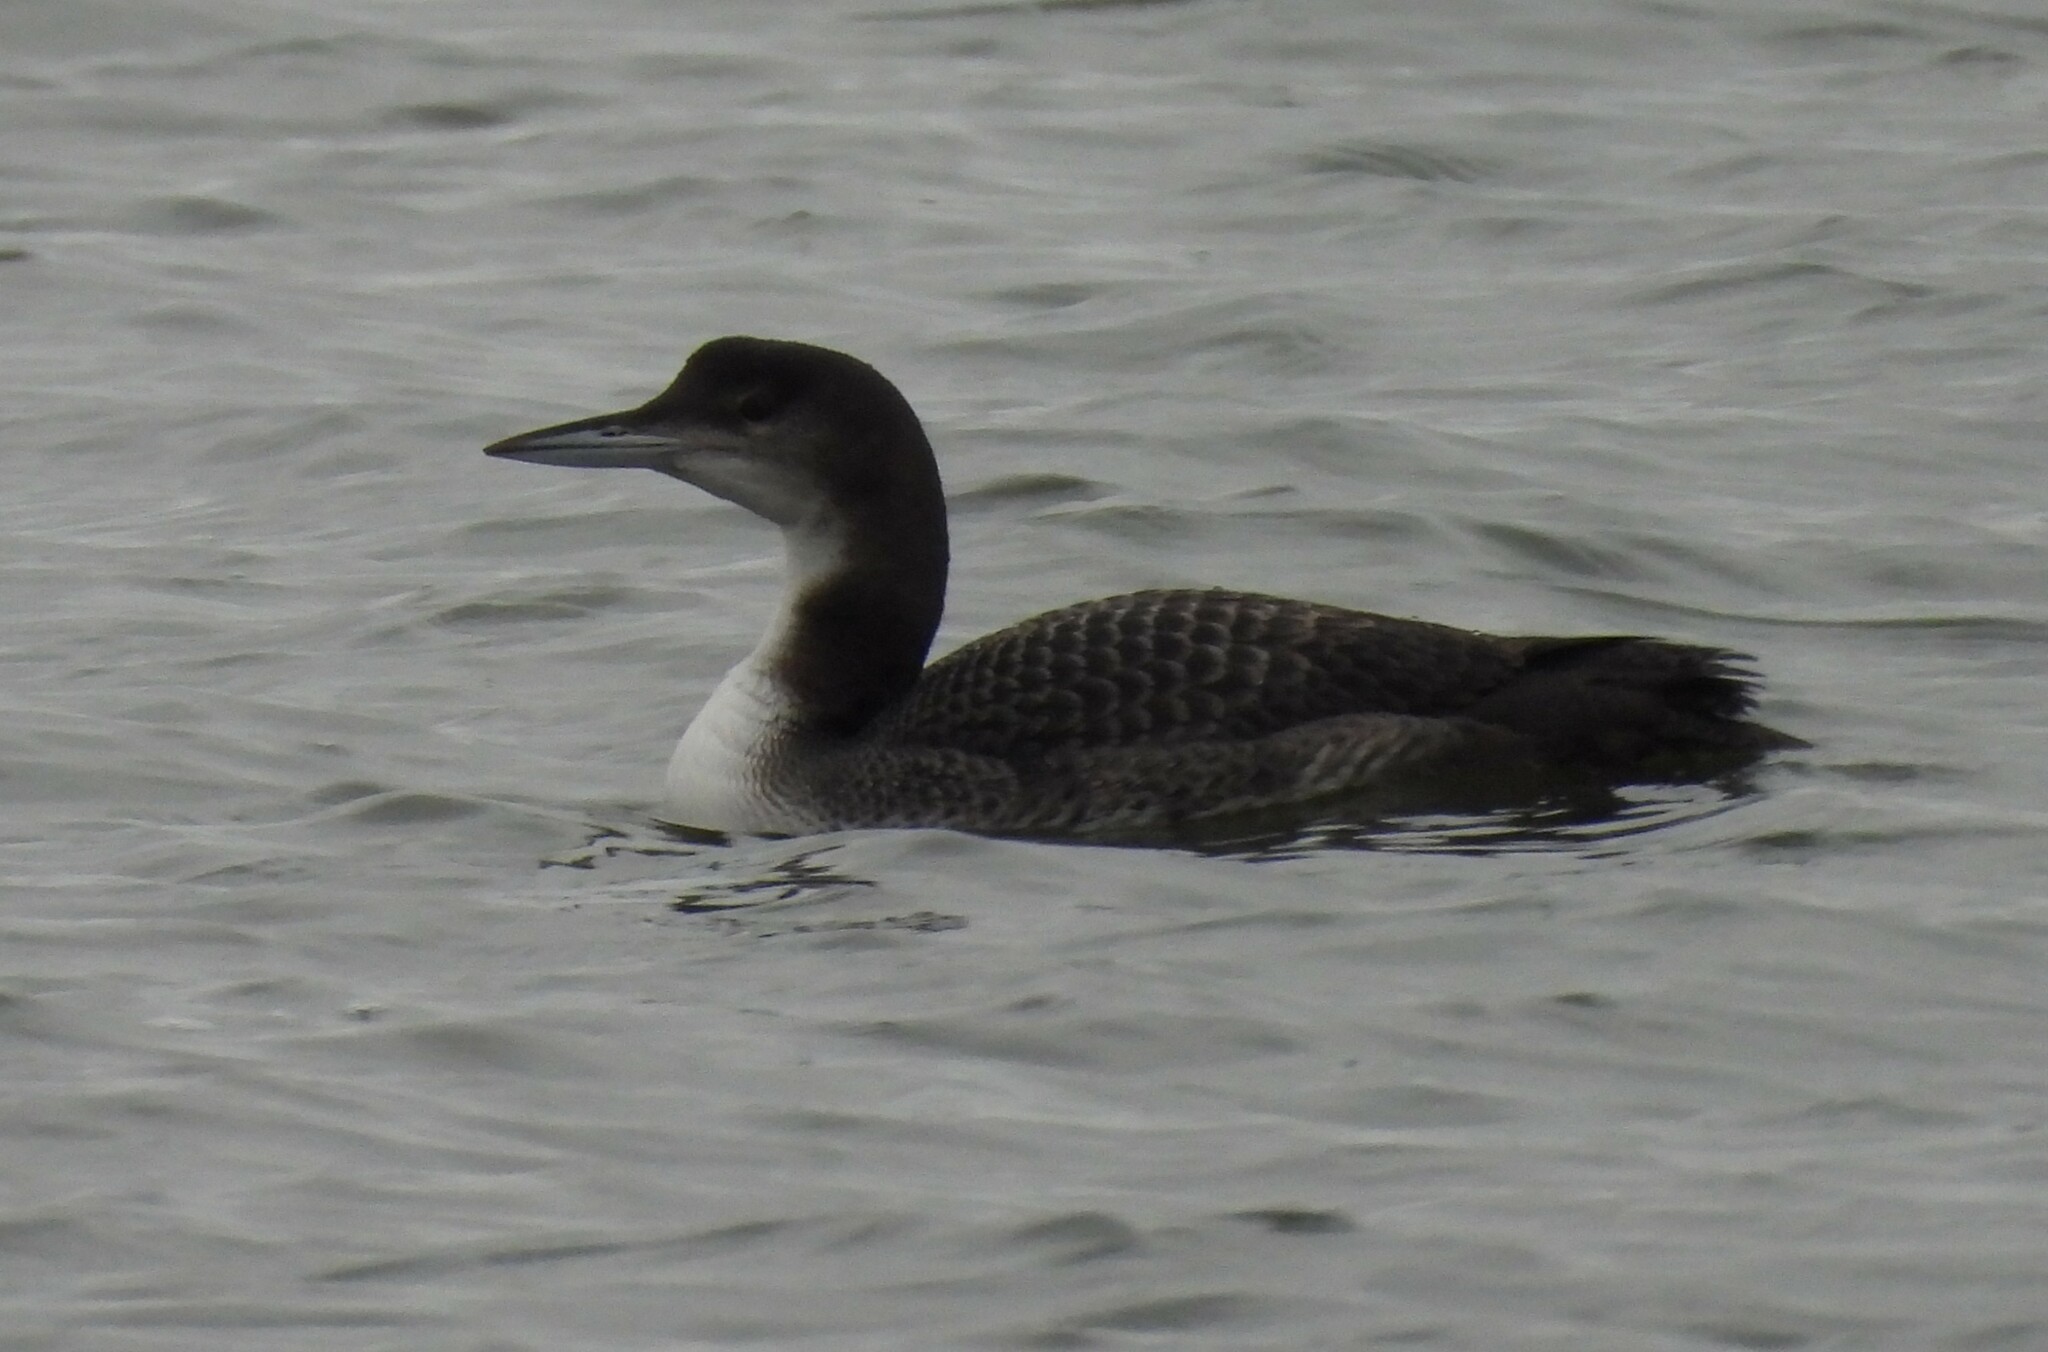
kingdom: Animalia
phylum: Chordata
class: Aves
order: Gaviiformes
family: Gaviidae
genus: Gavia
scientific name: Gavia immer
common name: Common loon
